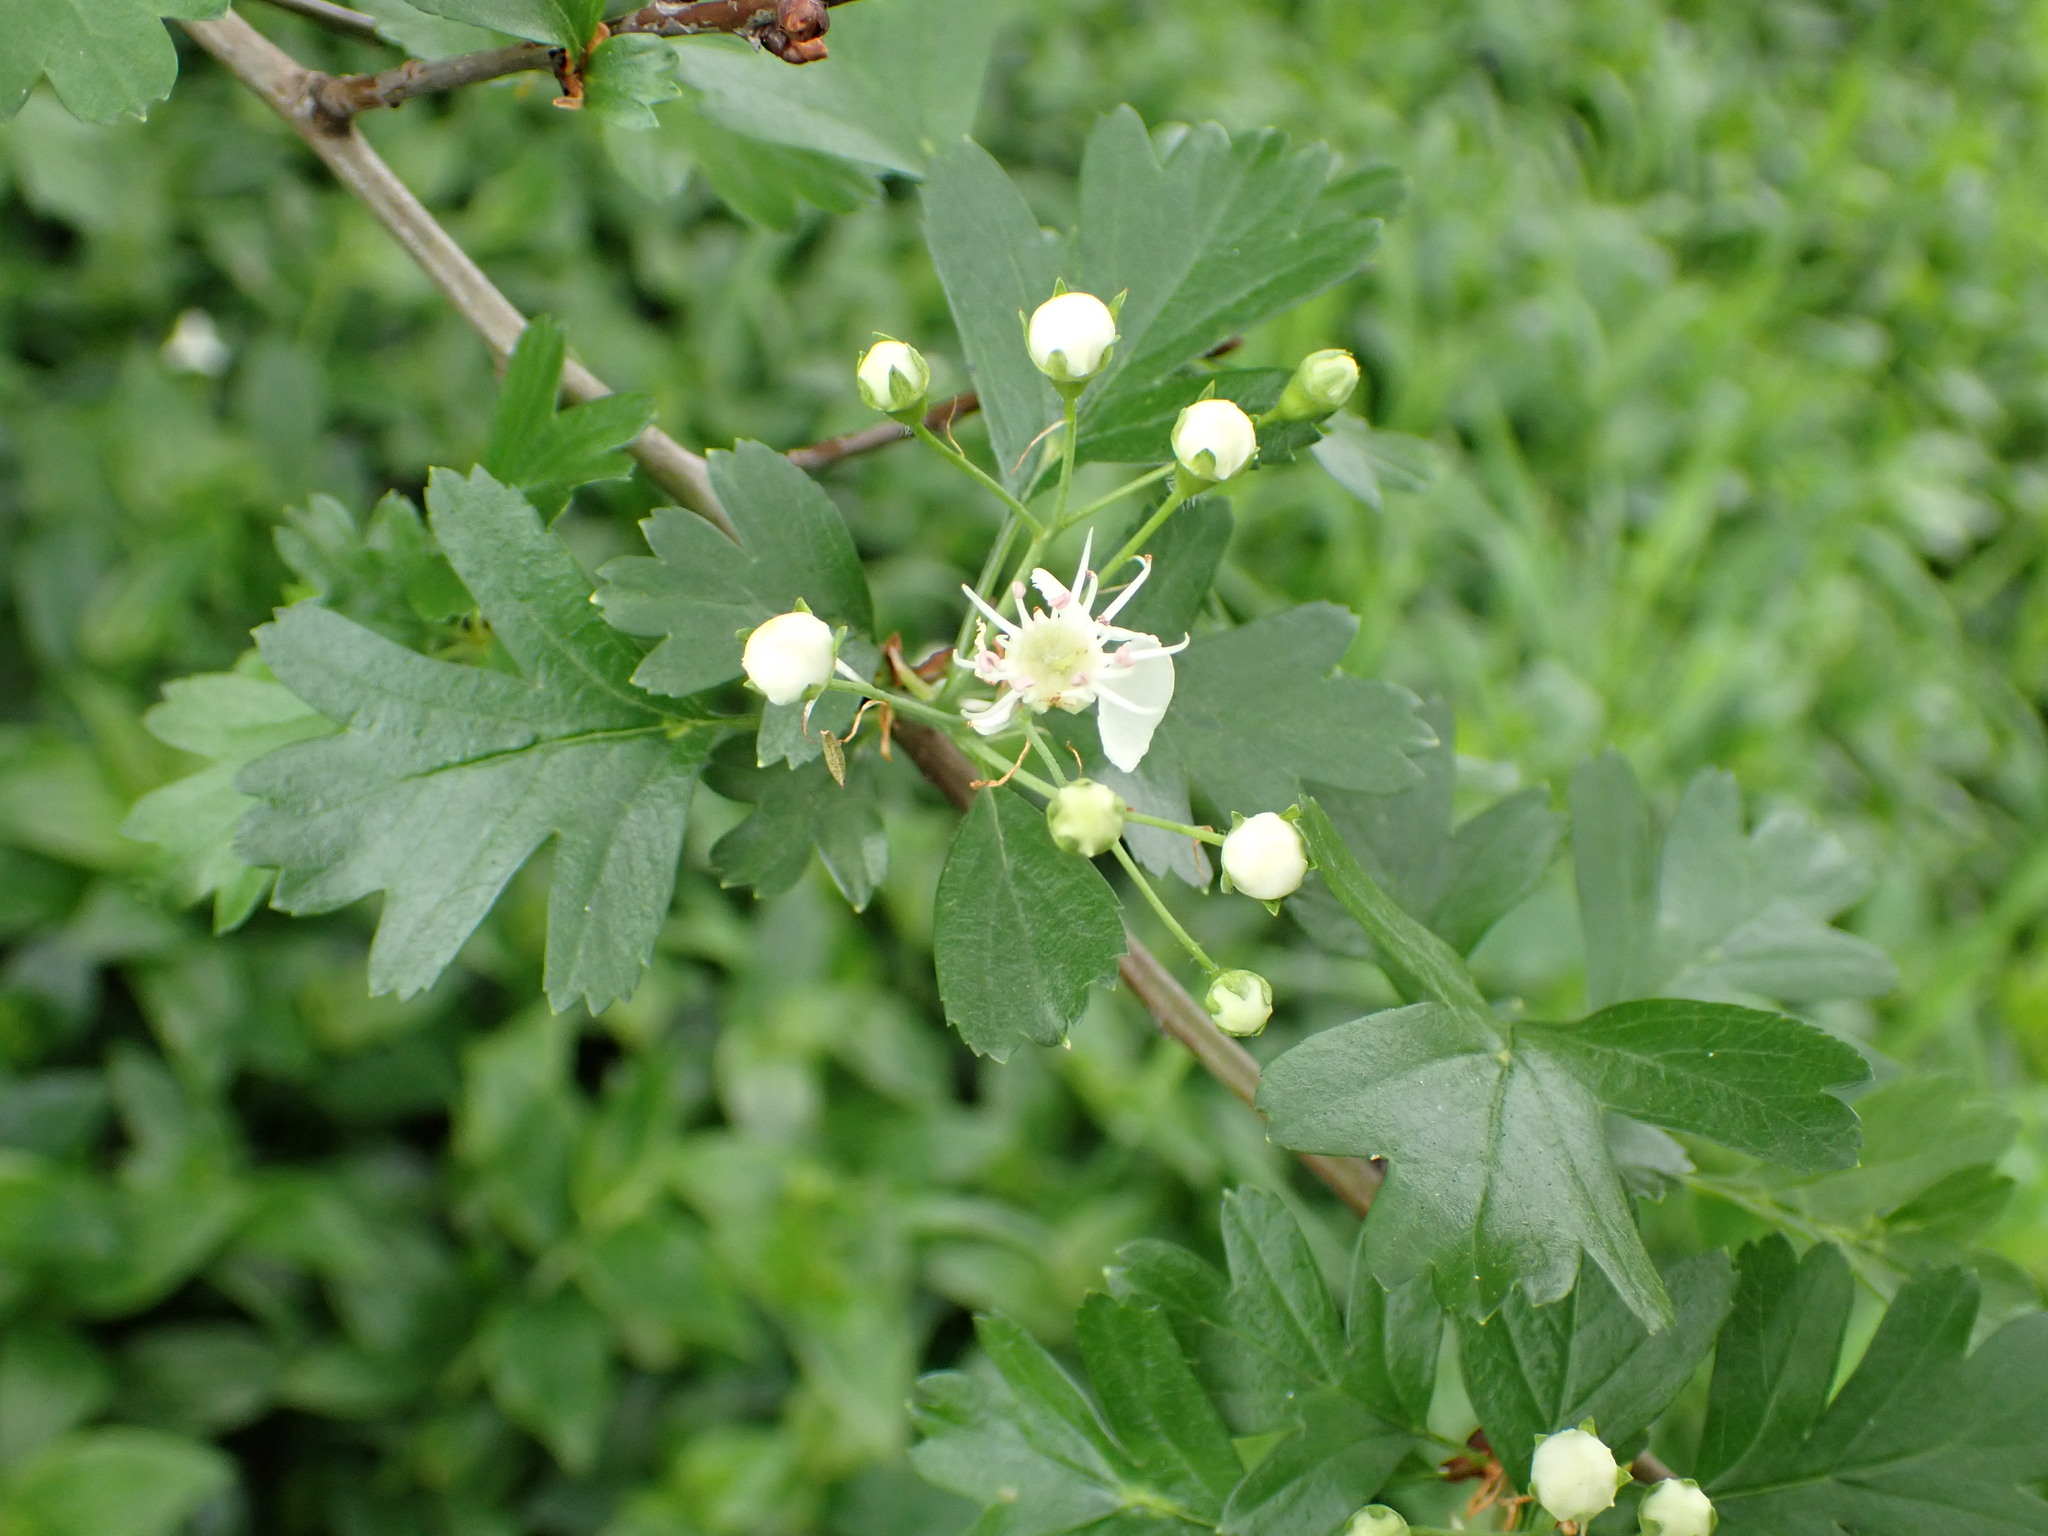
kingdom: Plantae
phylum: Tracheophyta
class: Magnoliopsida
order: Rosales
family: Rosaceae
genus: Crataegus
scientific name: Crataegus monogyna
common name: Hawthorn
